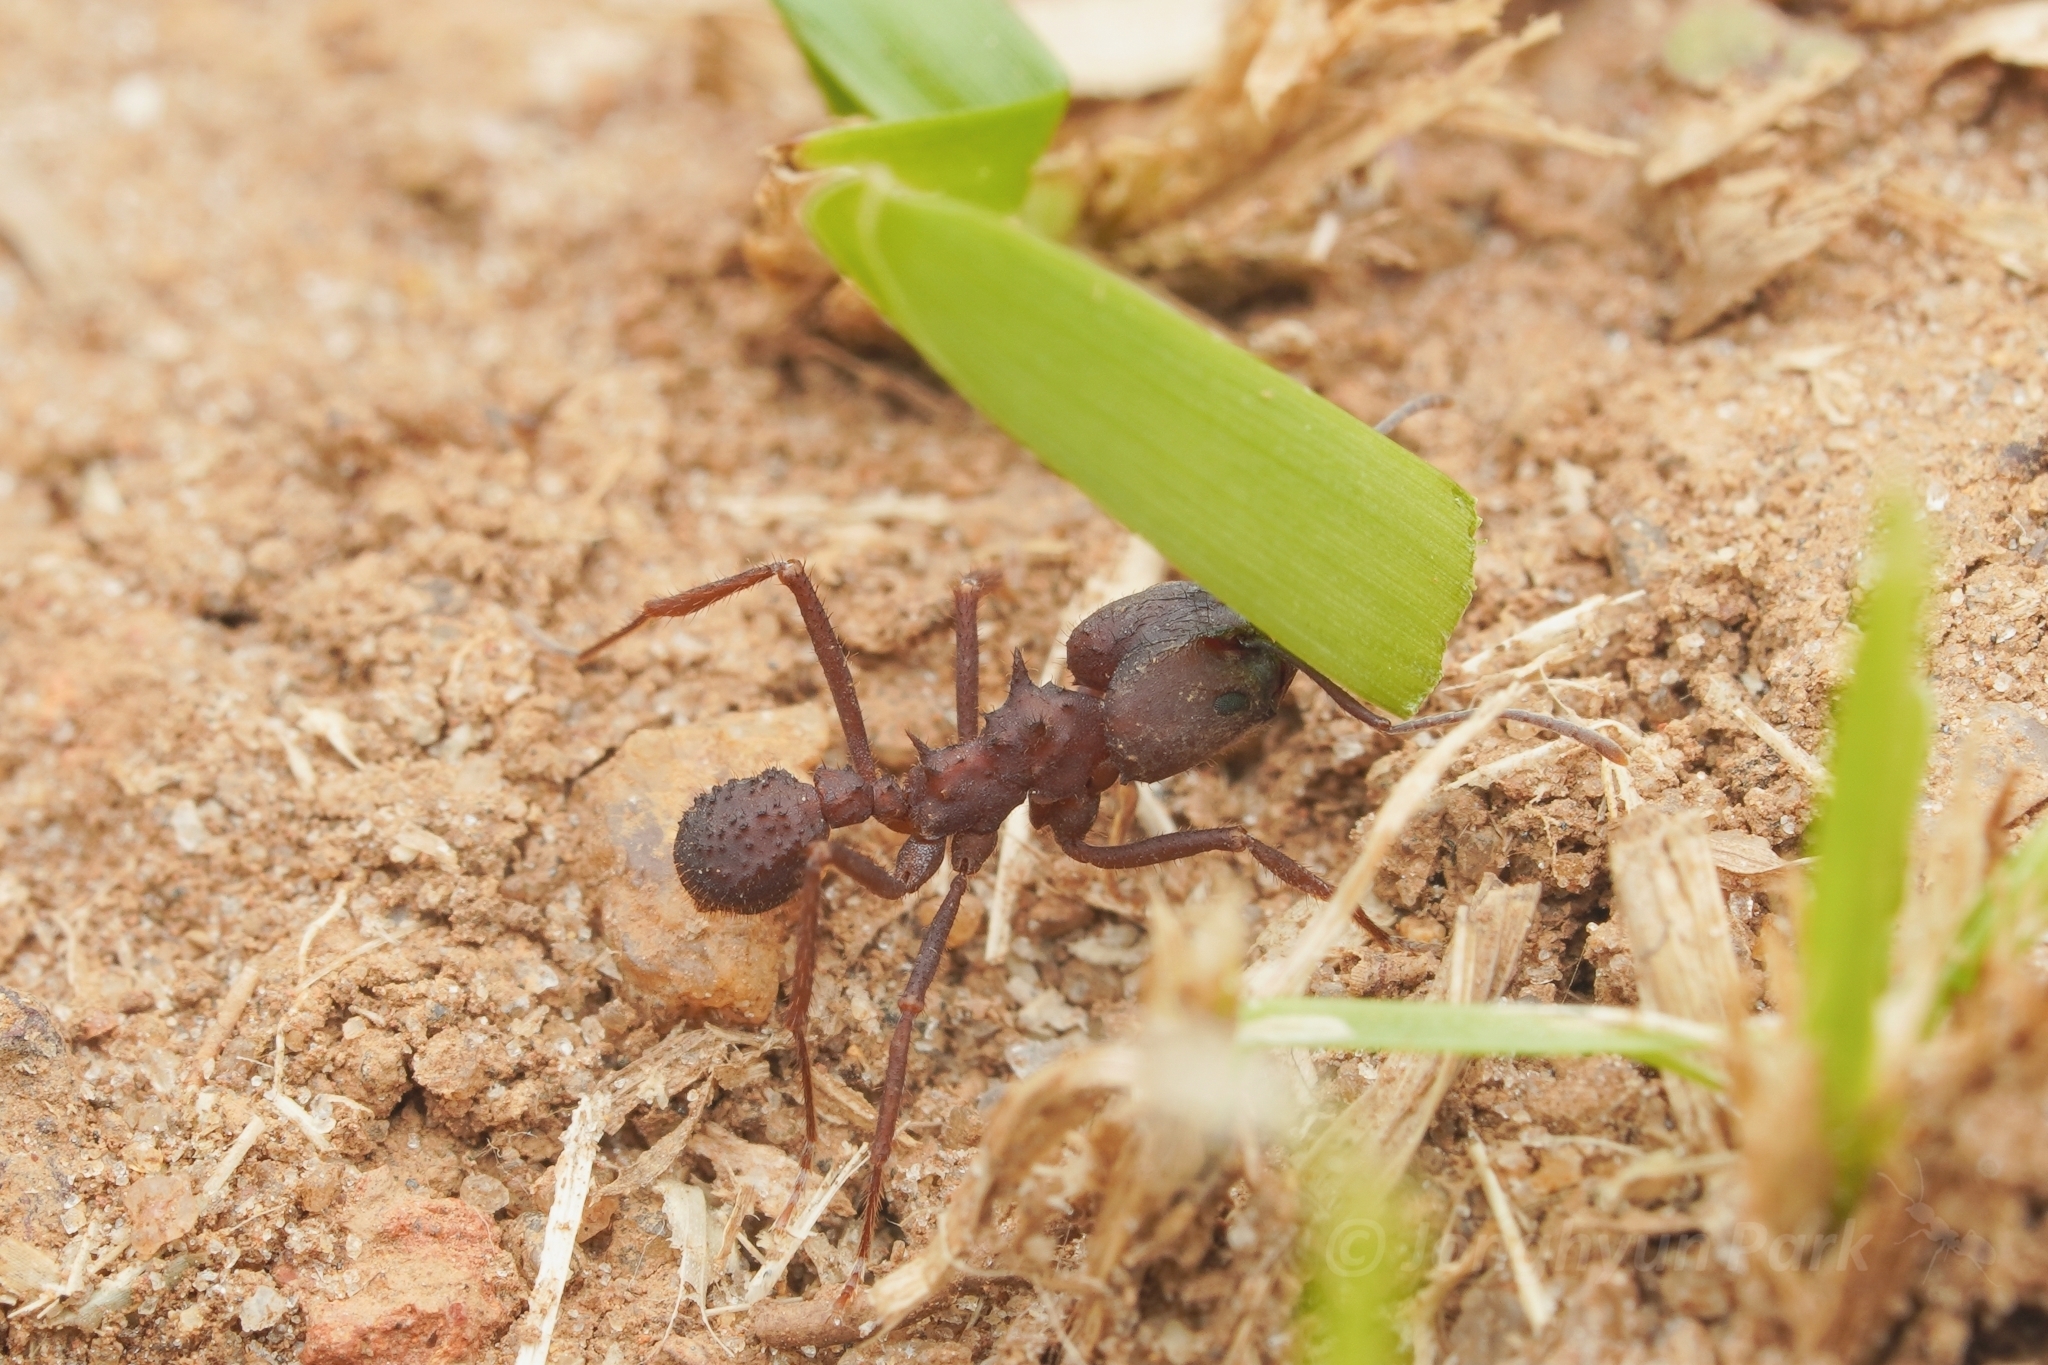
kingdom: Animalia
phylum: Arthropoda
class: Insecta
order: Hymenoptera
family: Formicidae
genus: Acromyrmex
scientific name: Acromyrmex landolti
